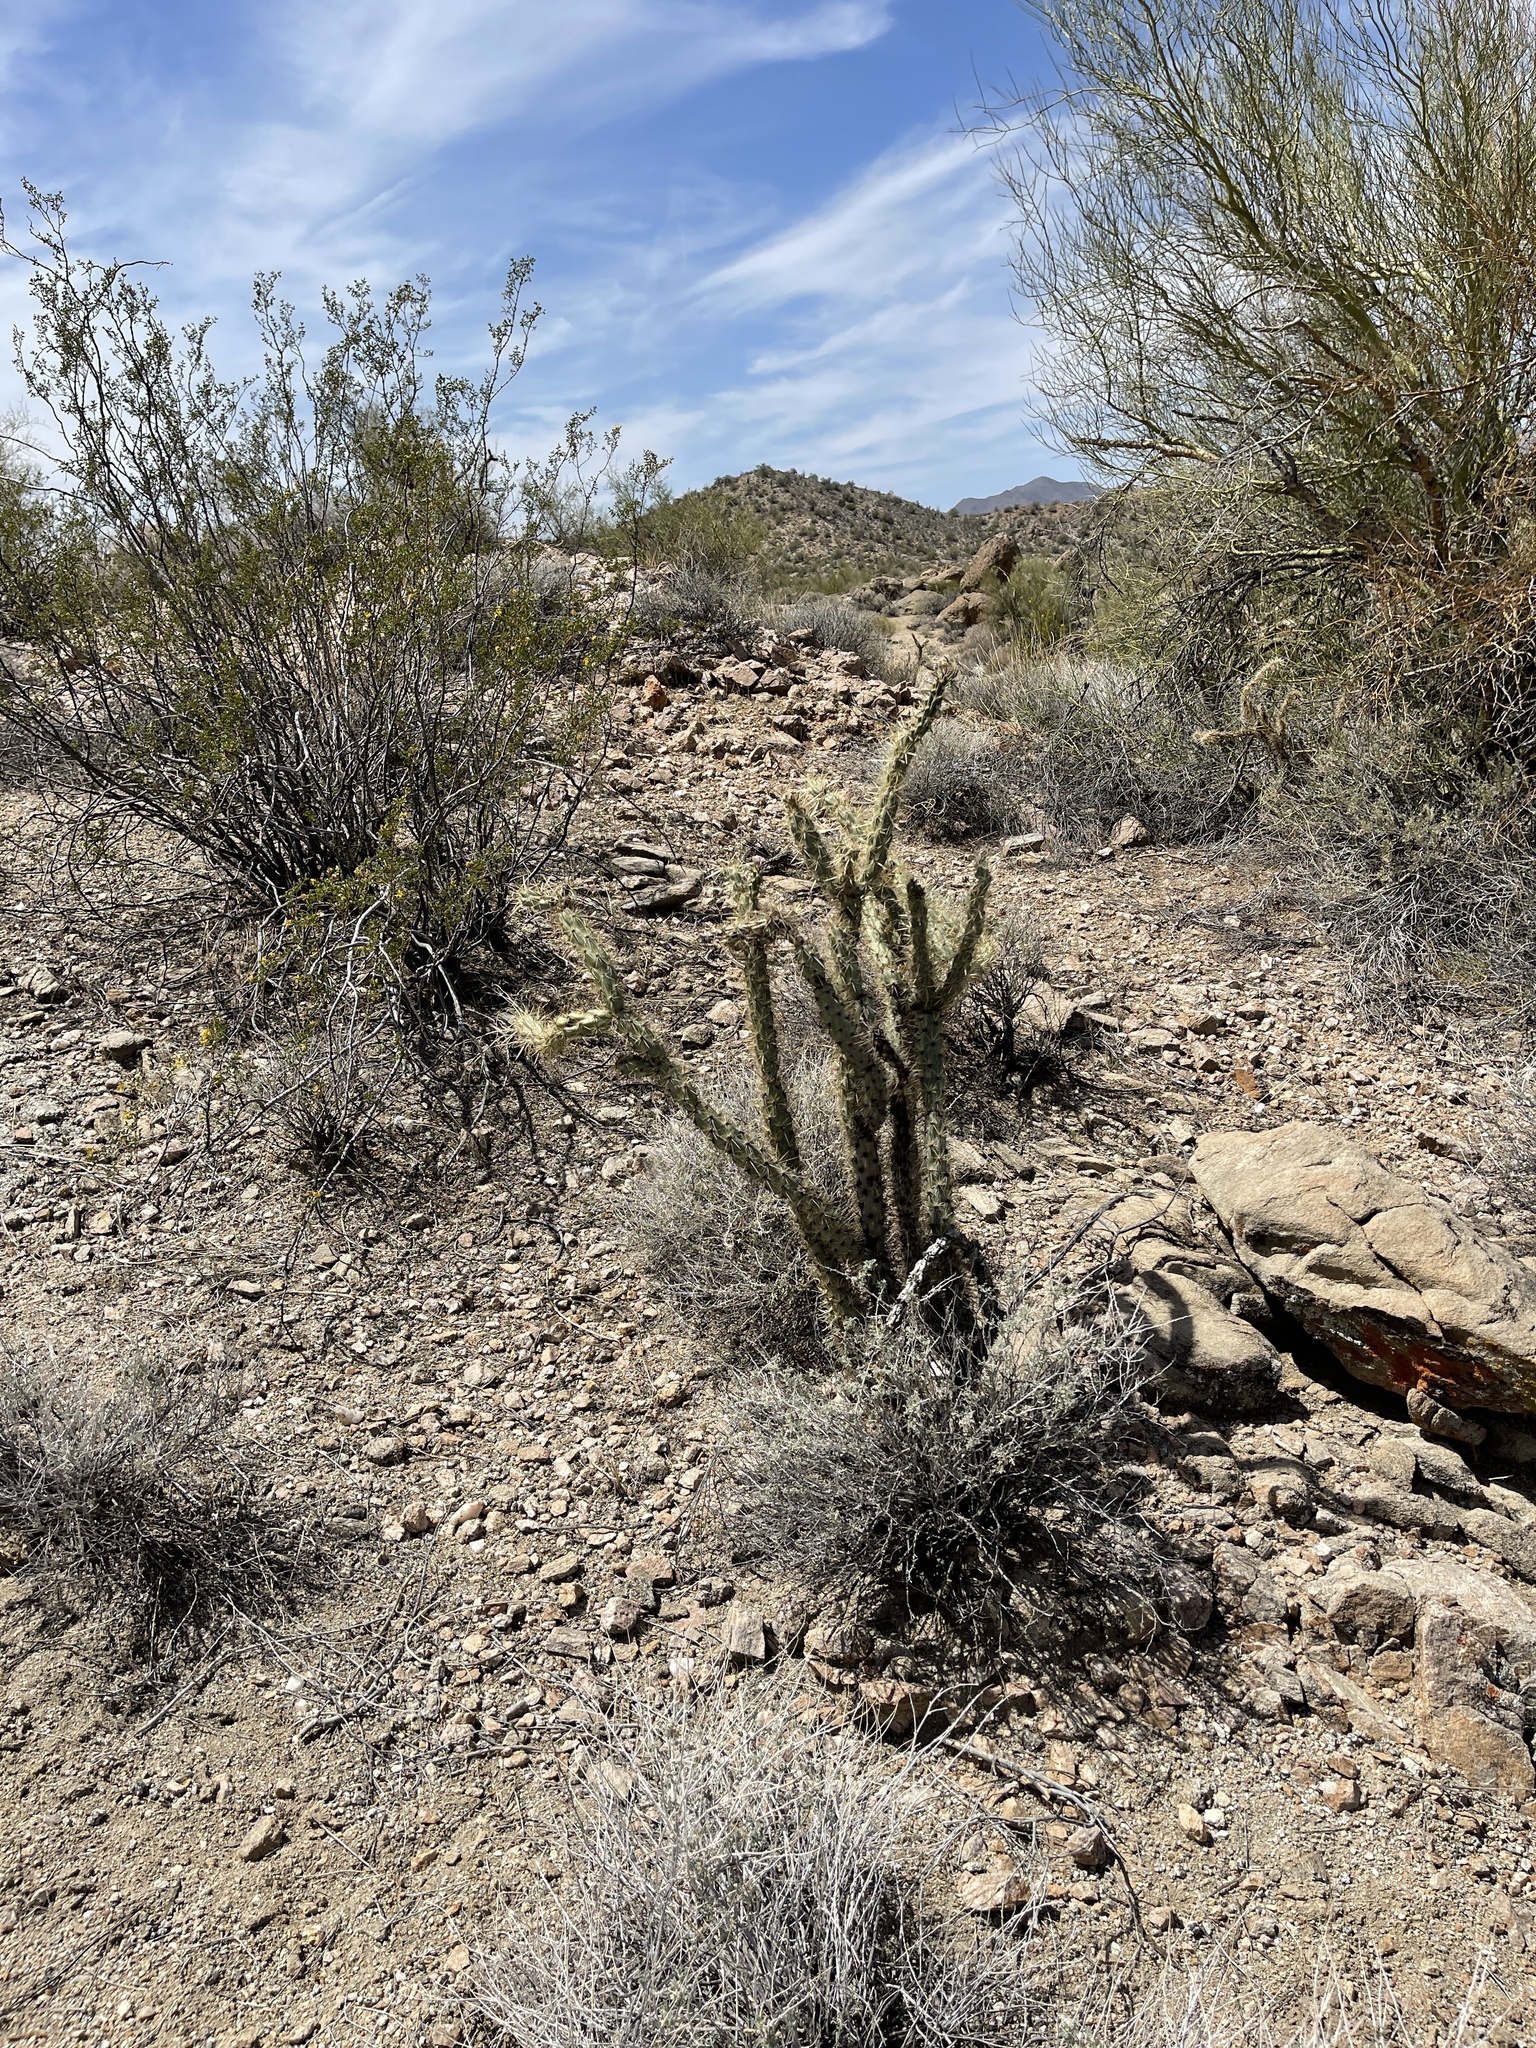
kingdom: Plantae
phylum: Tracheophyta
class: Magnoliopsida
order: Caryophyllales
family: Cactaceae
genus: Cylindropuntia
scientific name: Cylindropuntia acanthocarpa
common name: Buckhorn cholla
